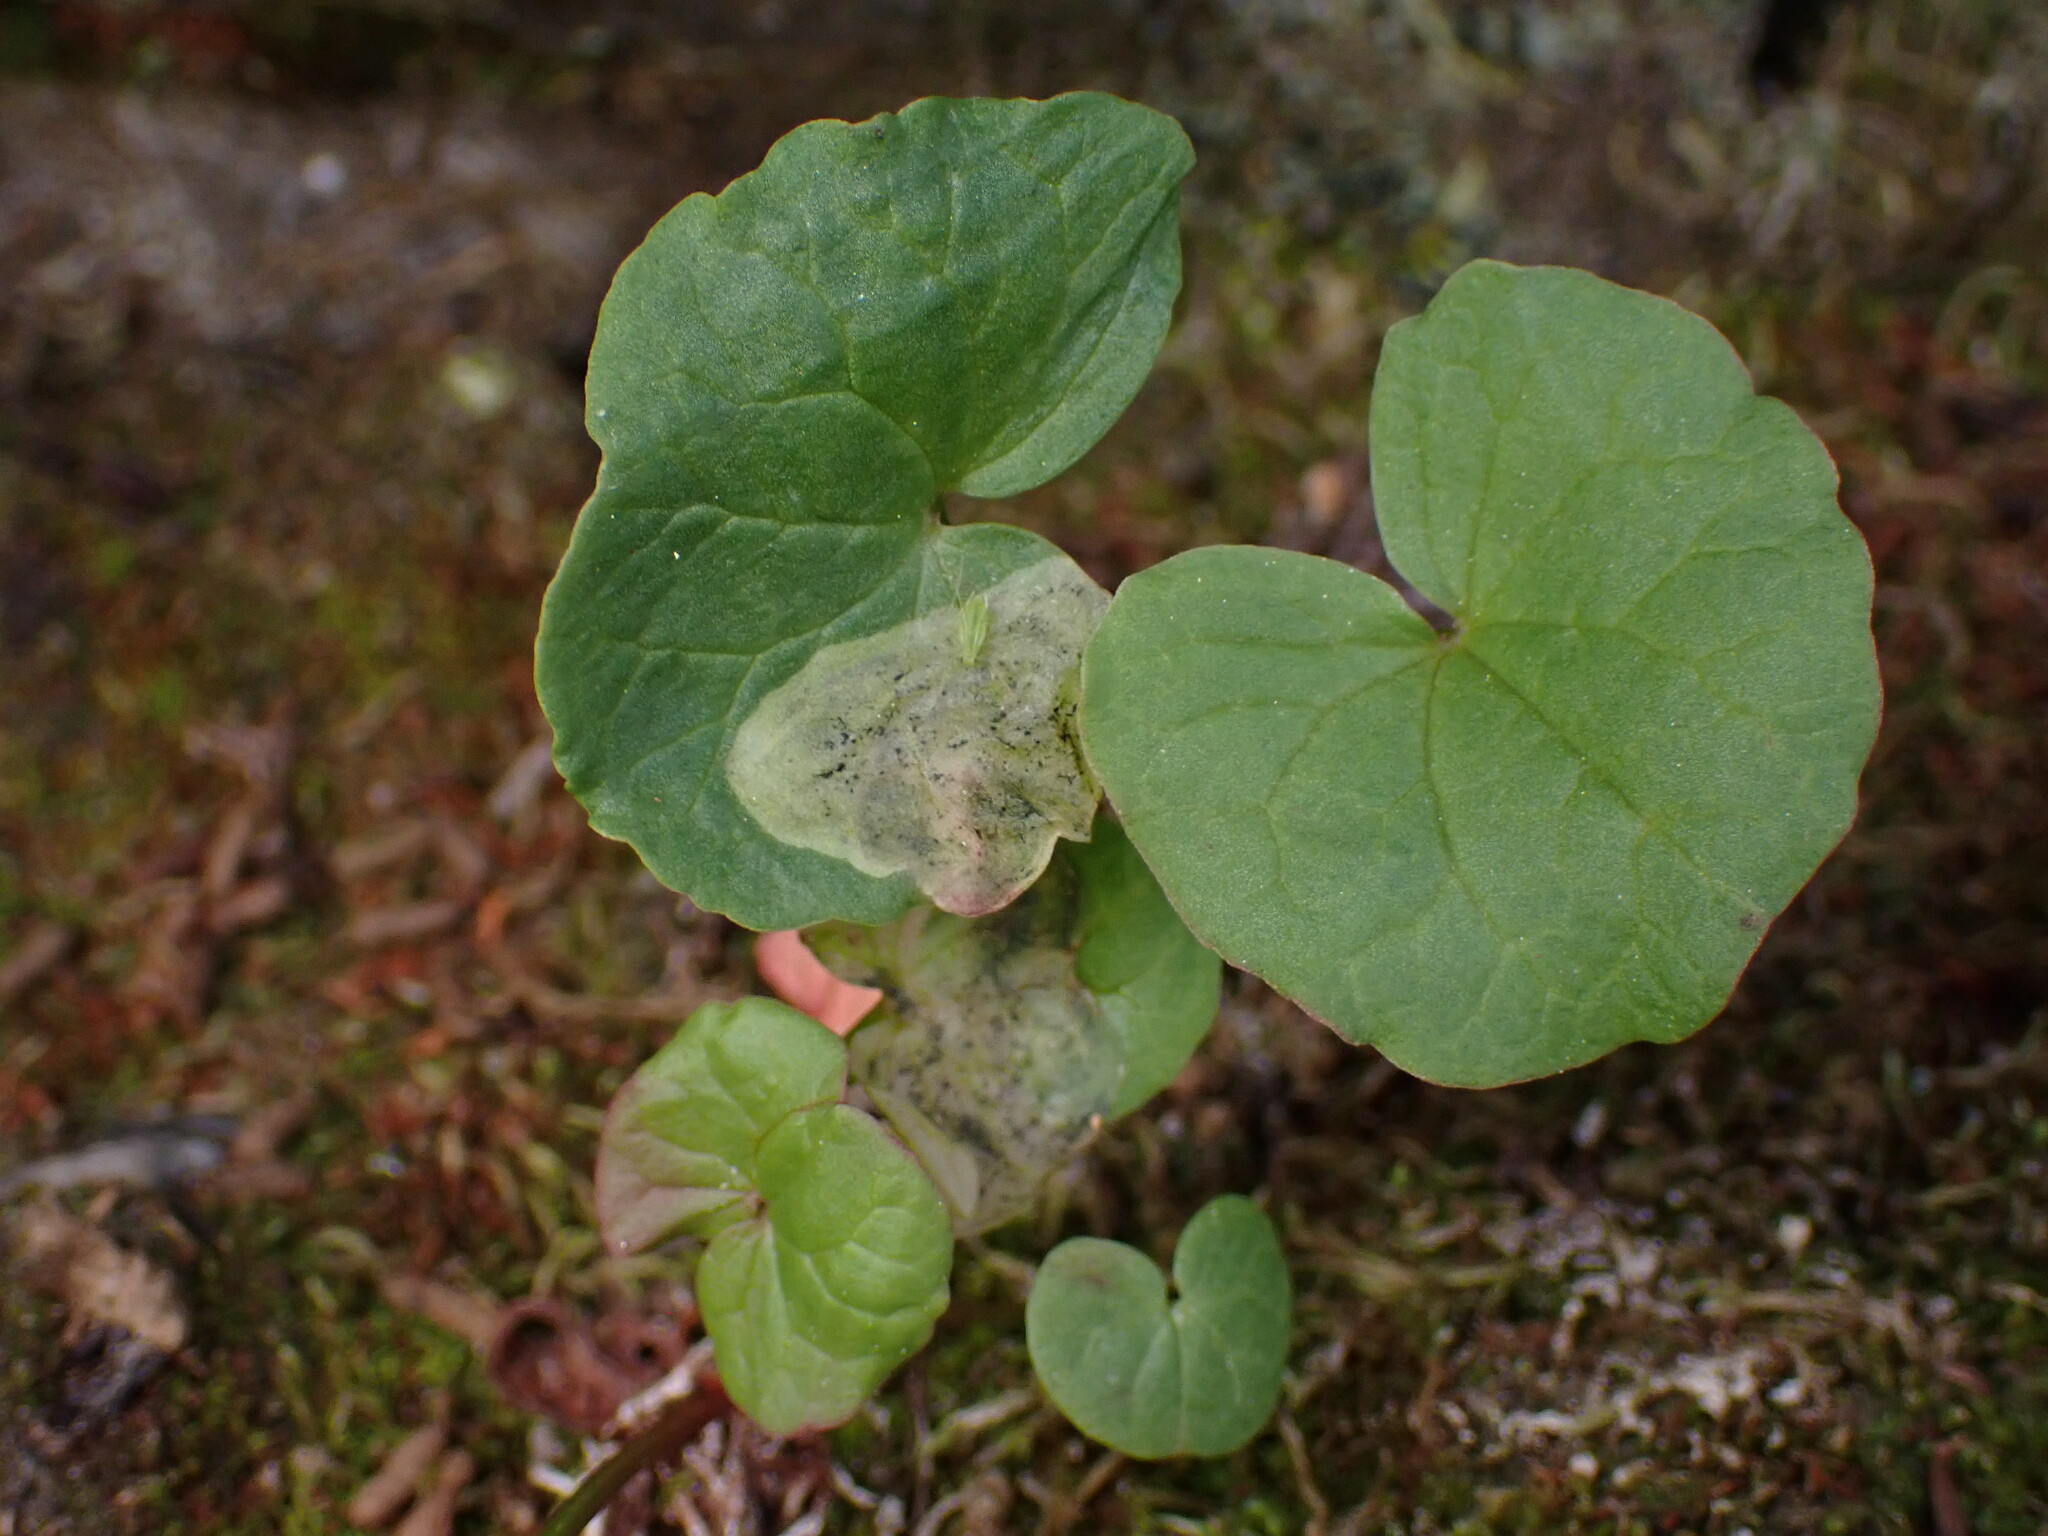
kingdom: Plantae
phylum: Tracheophyta
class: Magnoliopsida
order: Caryophyllales
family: Polygonaceae
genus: Oxyria
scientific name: Oxyria digyna
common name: Alpine mountain-sorrel
